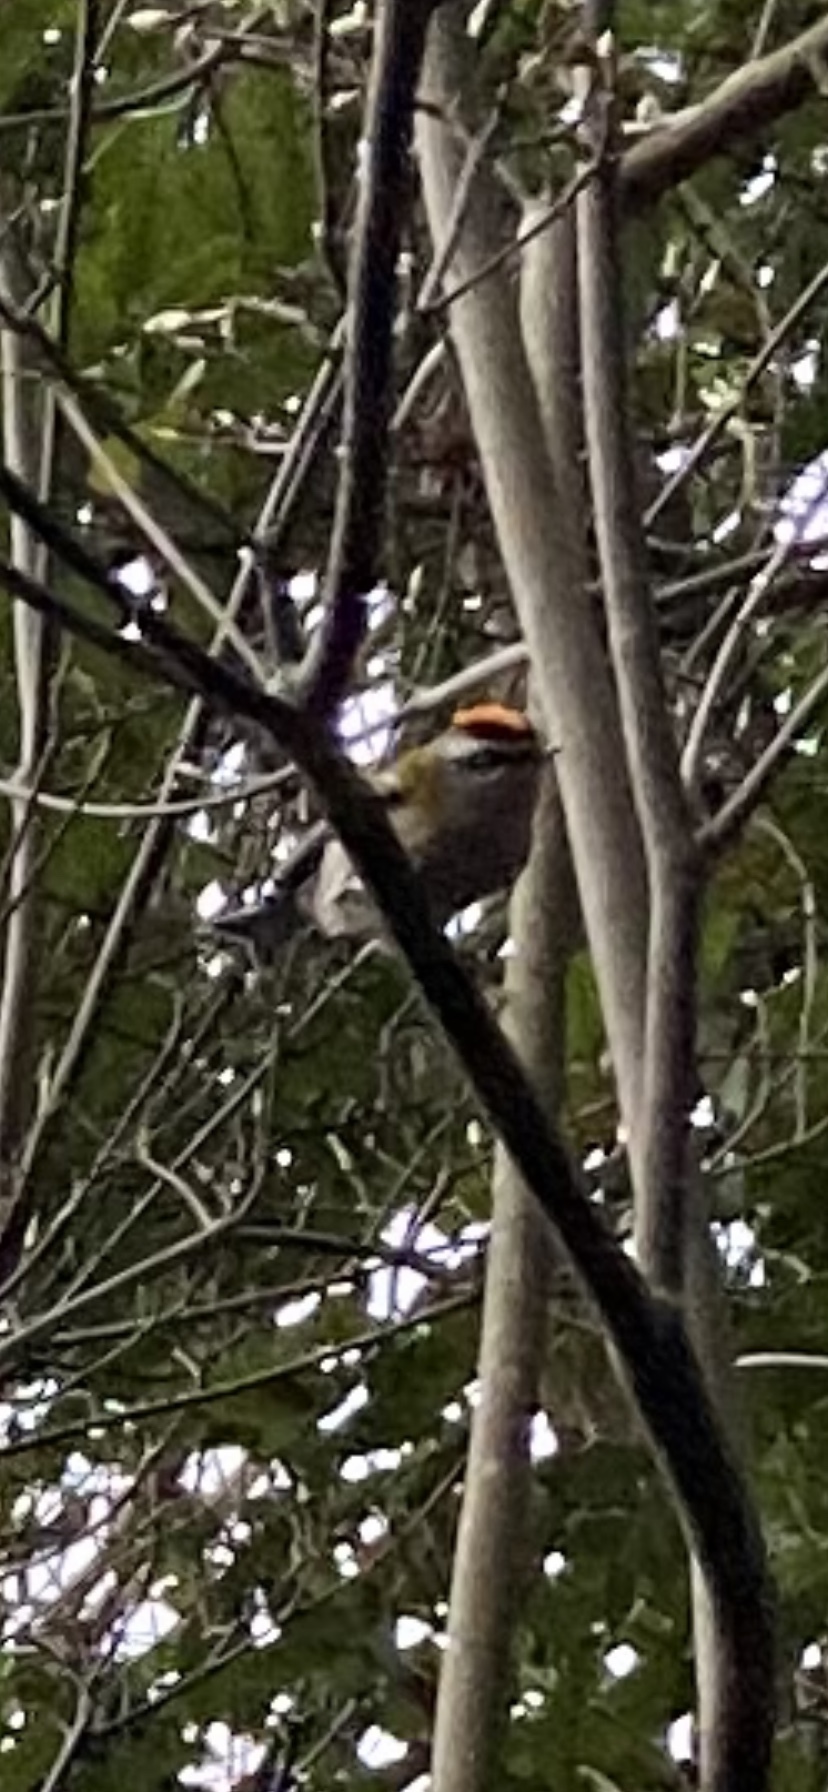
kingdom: Animalia
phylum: Chordata
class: Aves
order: Passeriformes
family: Regulidae
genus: Regulus
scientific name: Regulus ignicapilla
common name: Firecrest
